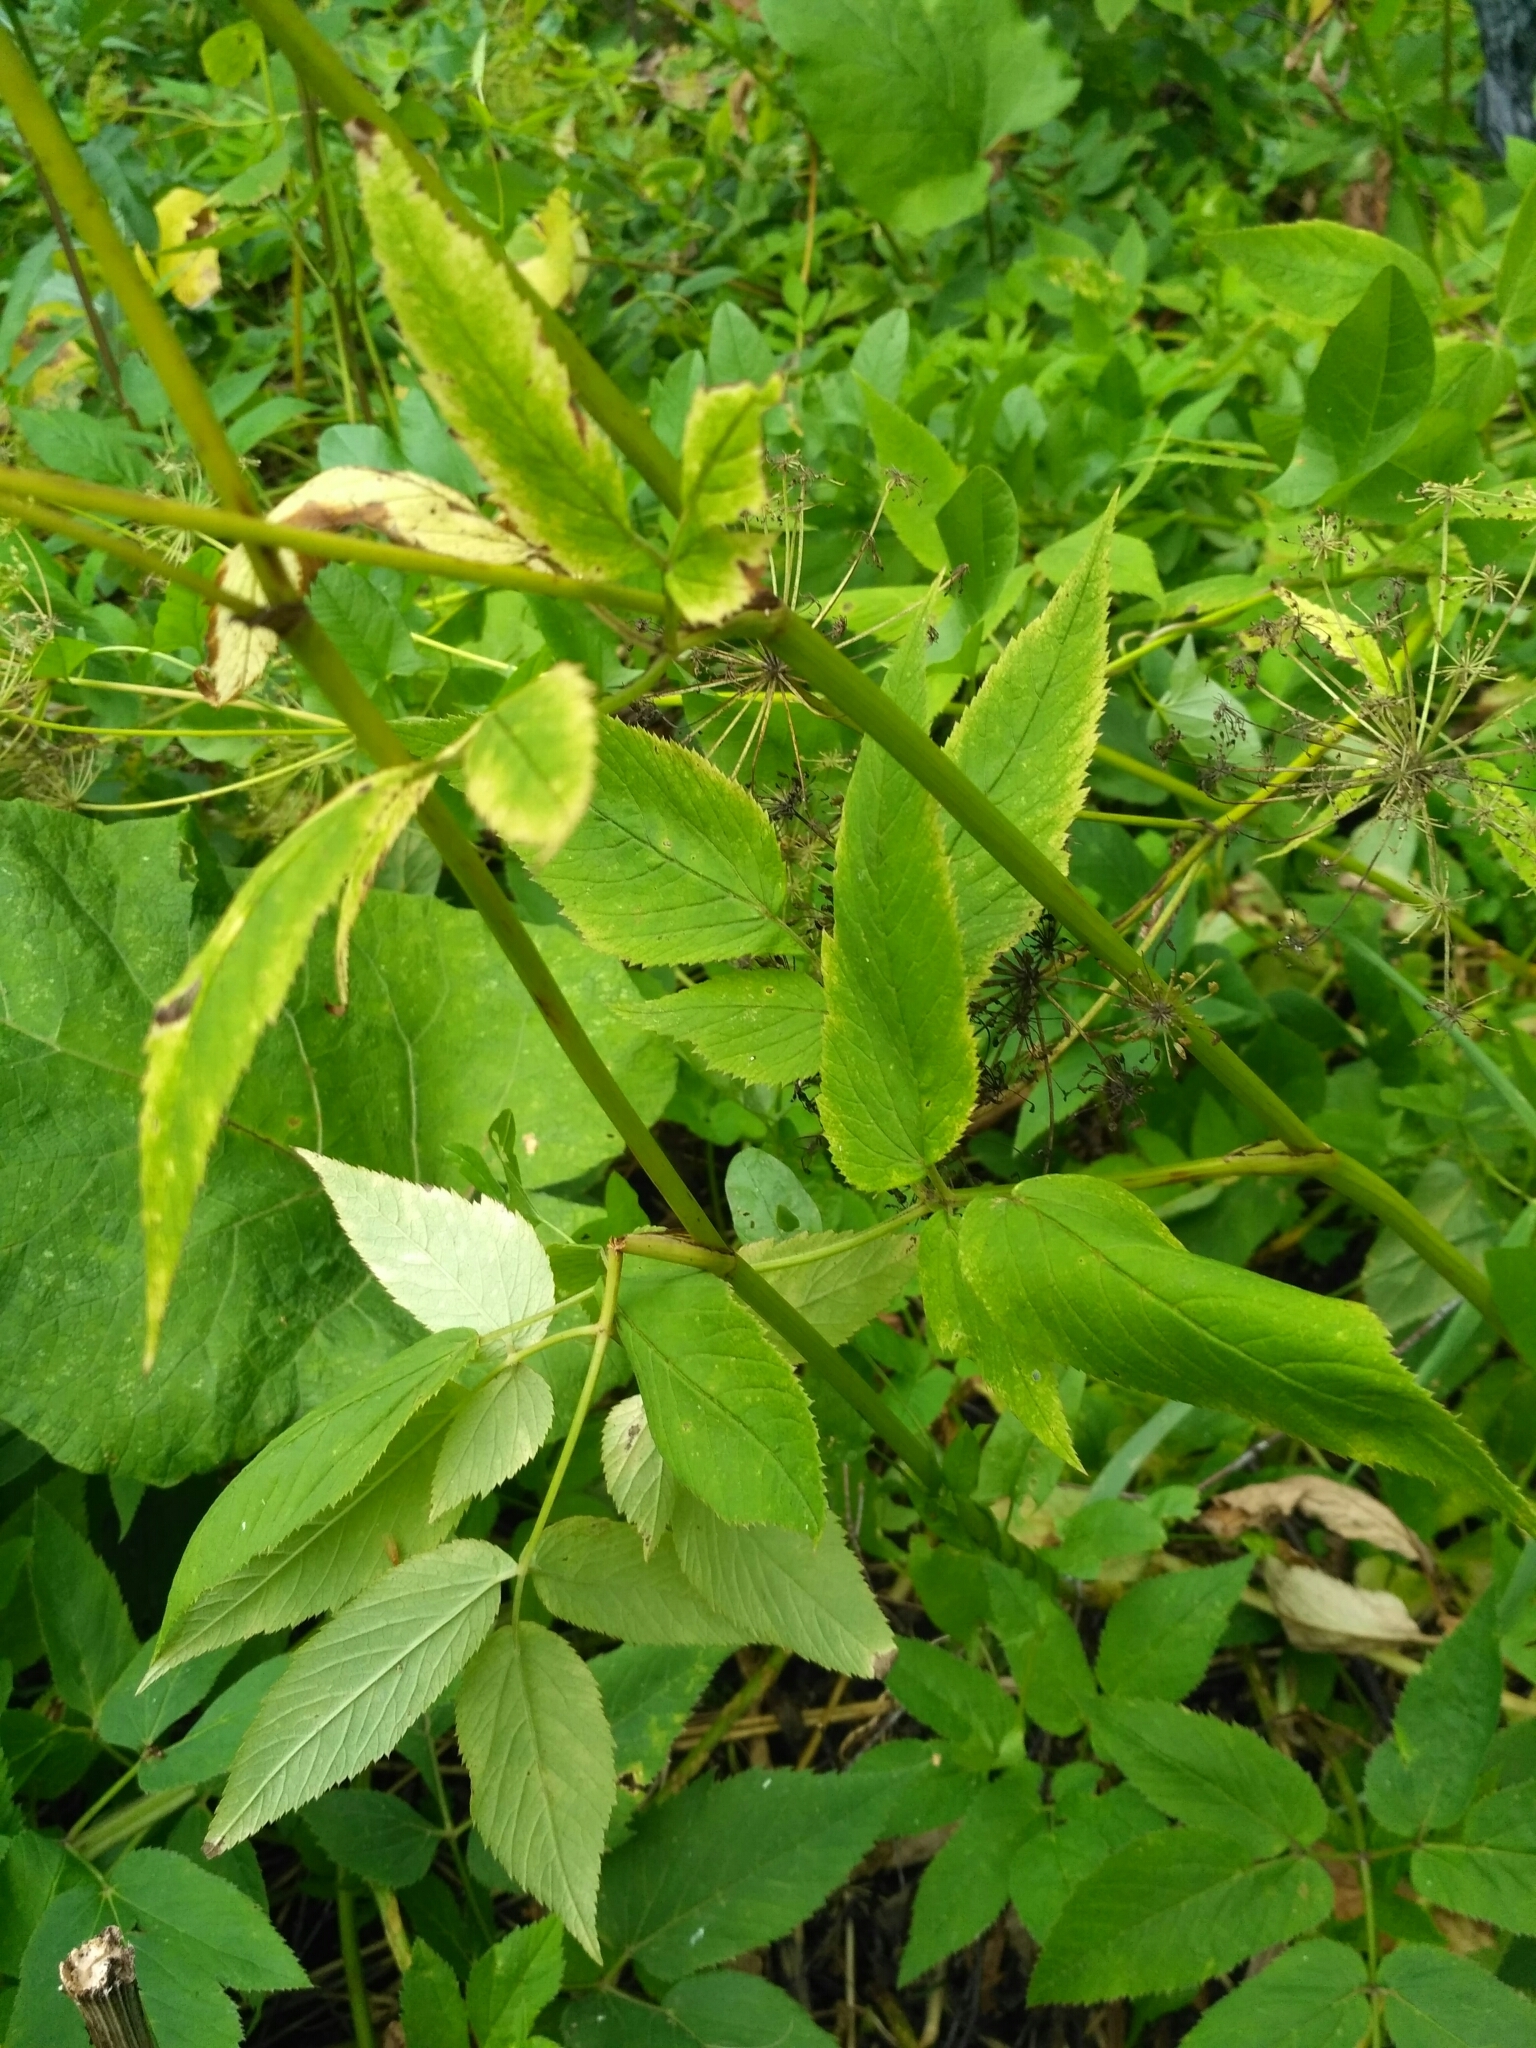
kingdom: Plantae
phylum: Tracheophyta
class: Magnoliopsida
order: Apiales
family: Apiaceae
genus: Aegopodium
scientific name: Aegopodium podagraria
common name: Ground-elder
